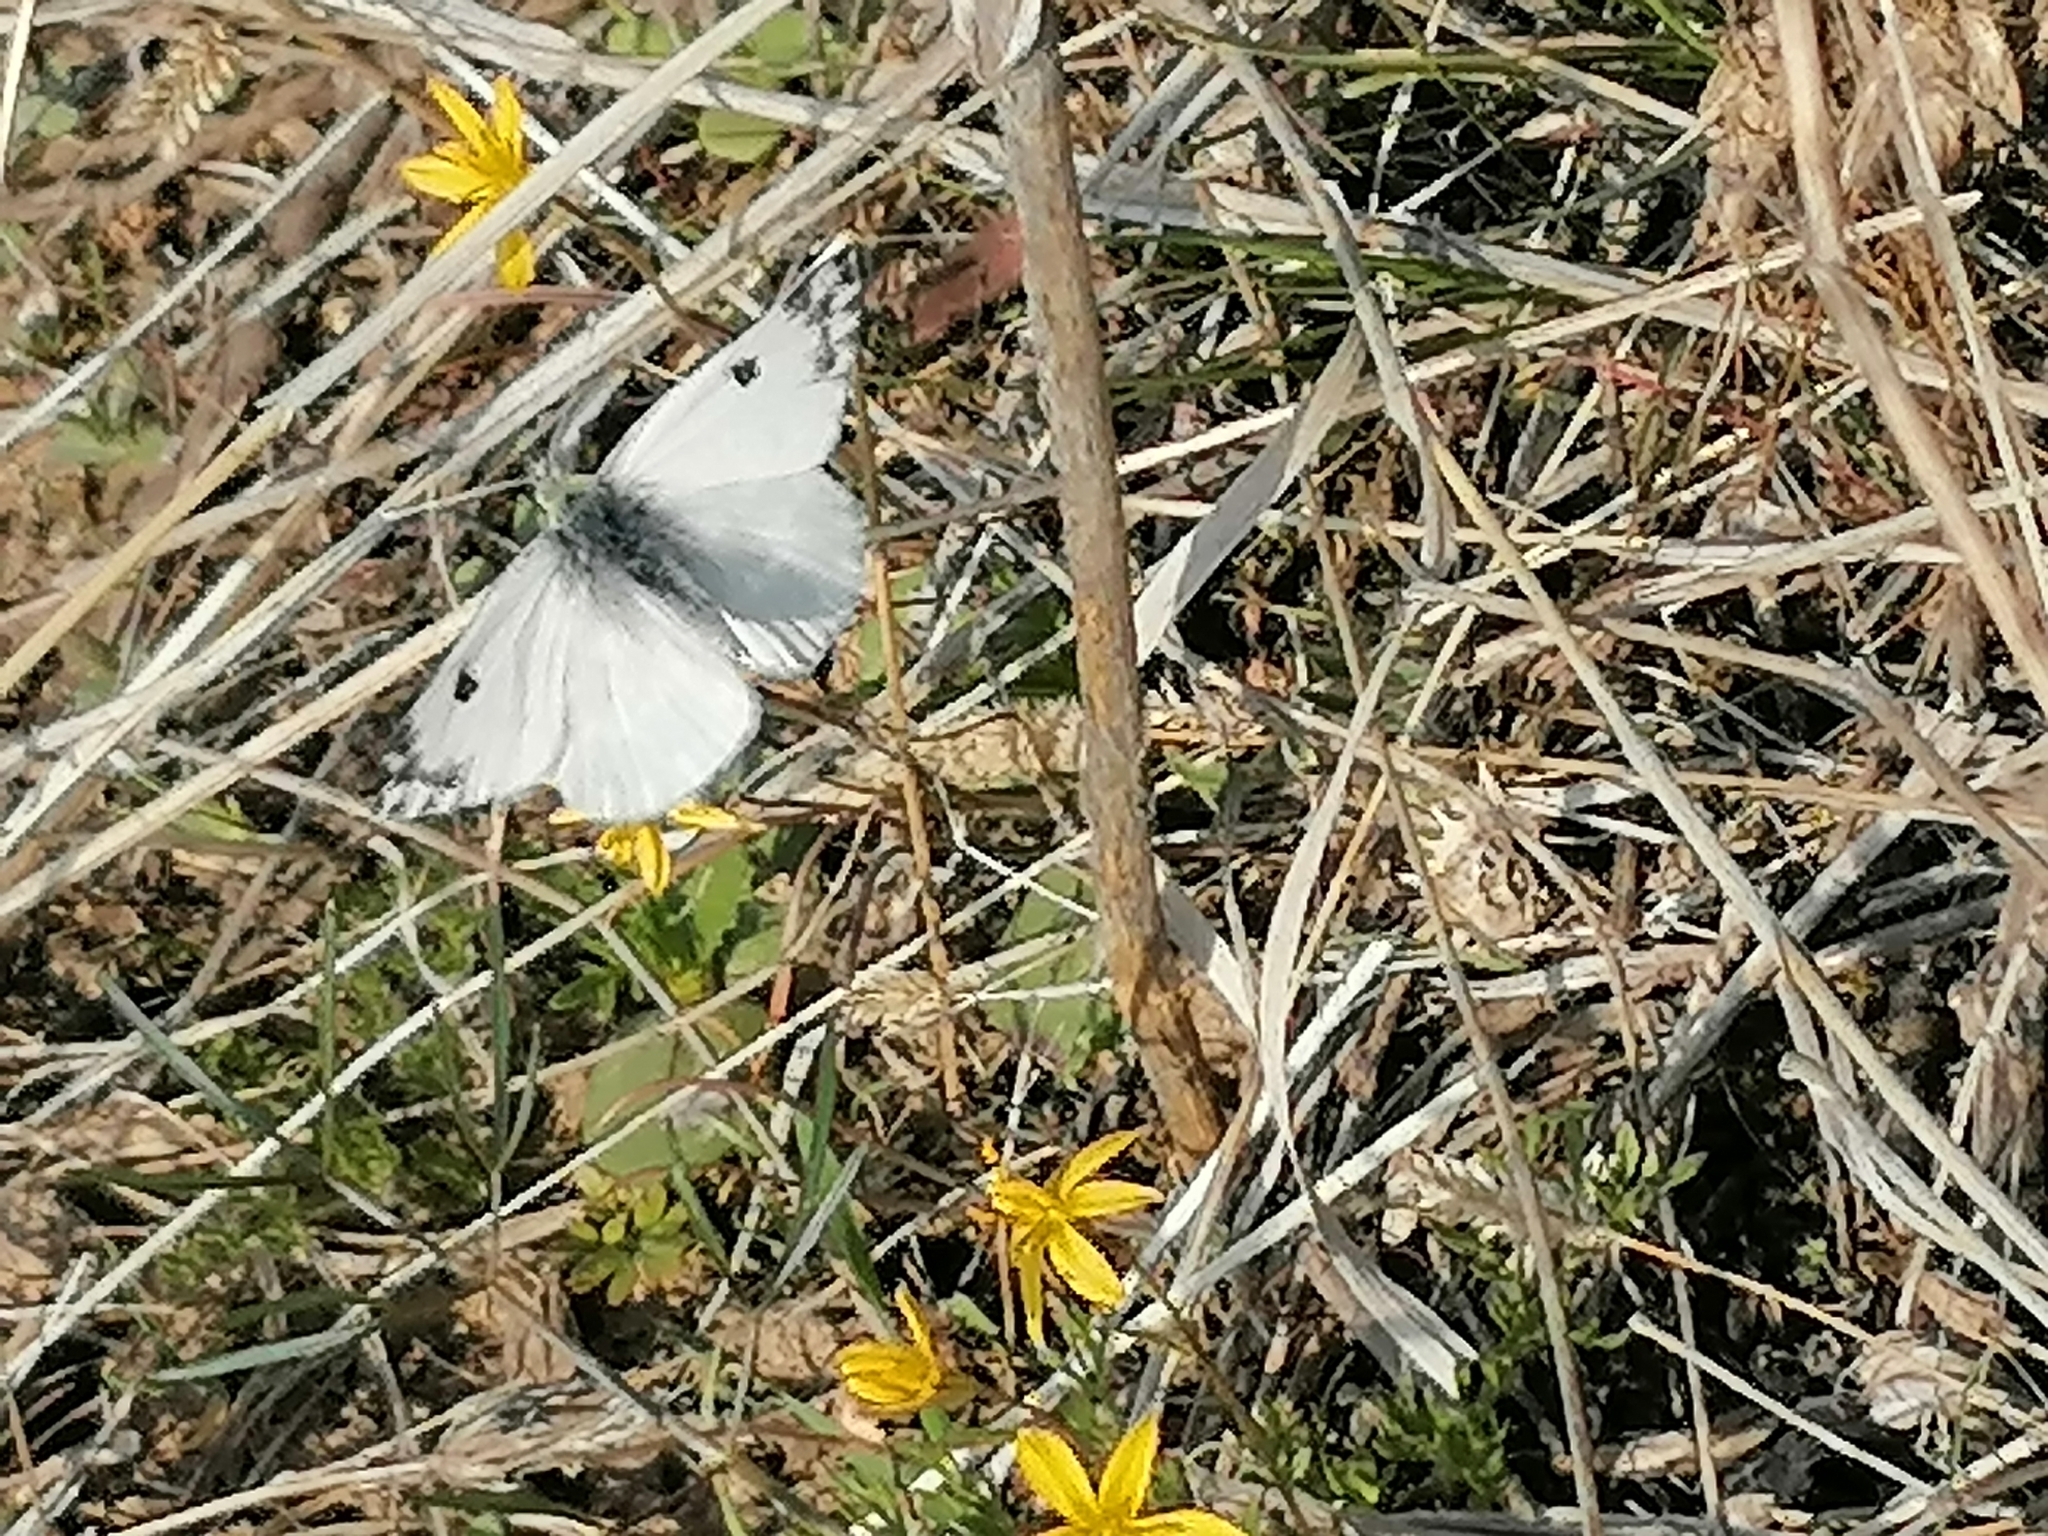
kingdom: Animalia
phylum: Arthropoda
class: Insecta
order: Lepidoptera
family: Pieridae
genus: Pontia
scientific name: Pontia edusa
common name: Eastern bath white
